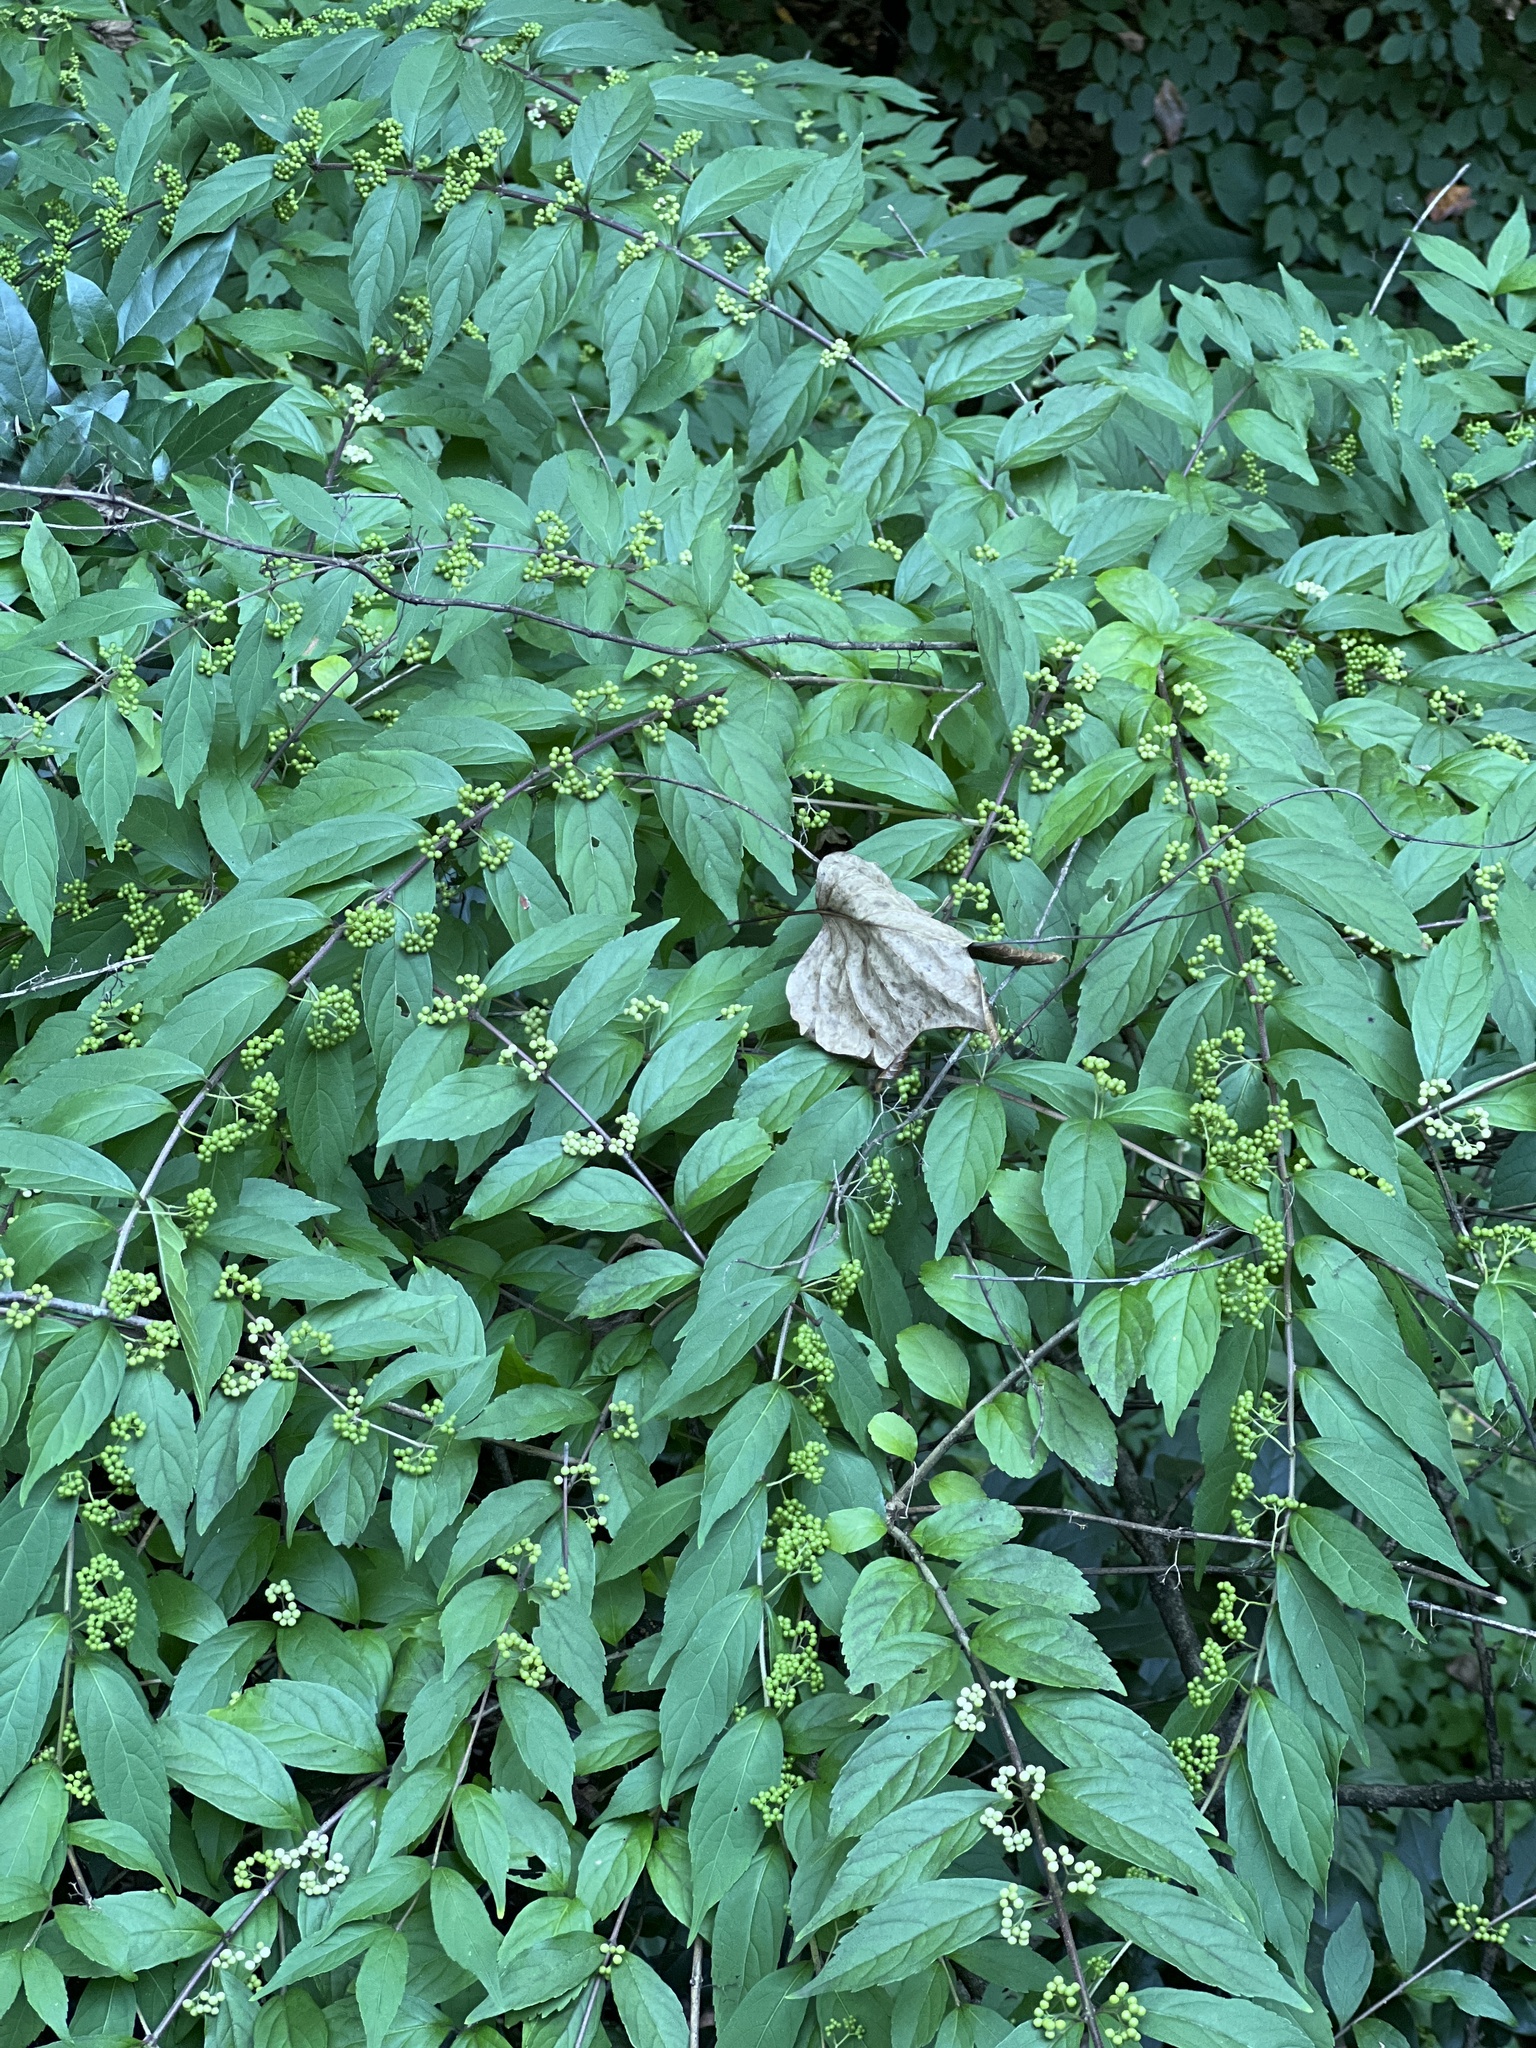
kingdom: Plantae
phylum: Tracheophyta
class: Magnoliopsida
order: Lamiales
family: Lamiaceae
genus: Callicarpa
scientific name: Callicarpa dichotoma
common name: Purple beauty-berry
